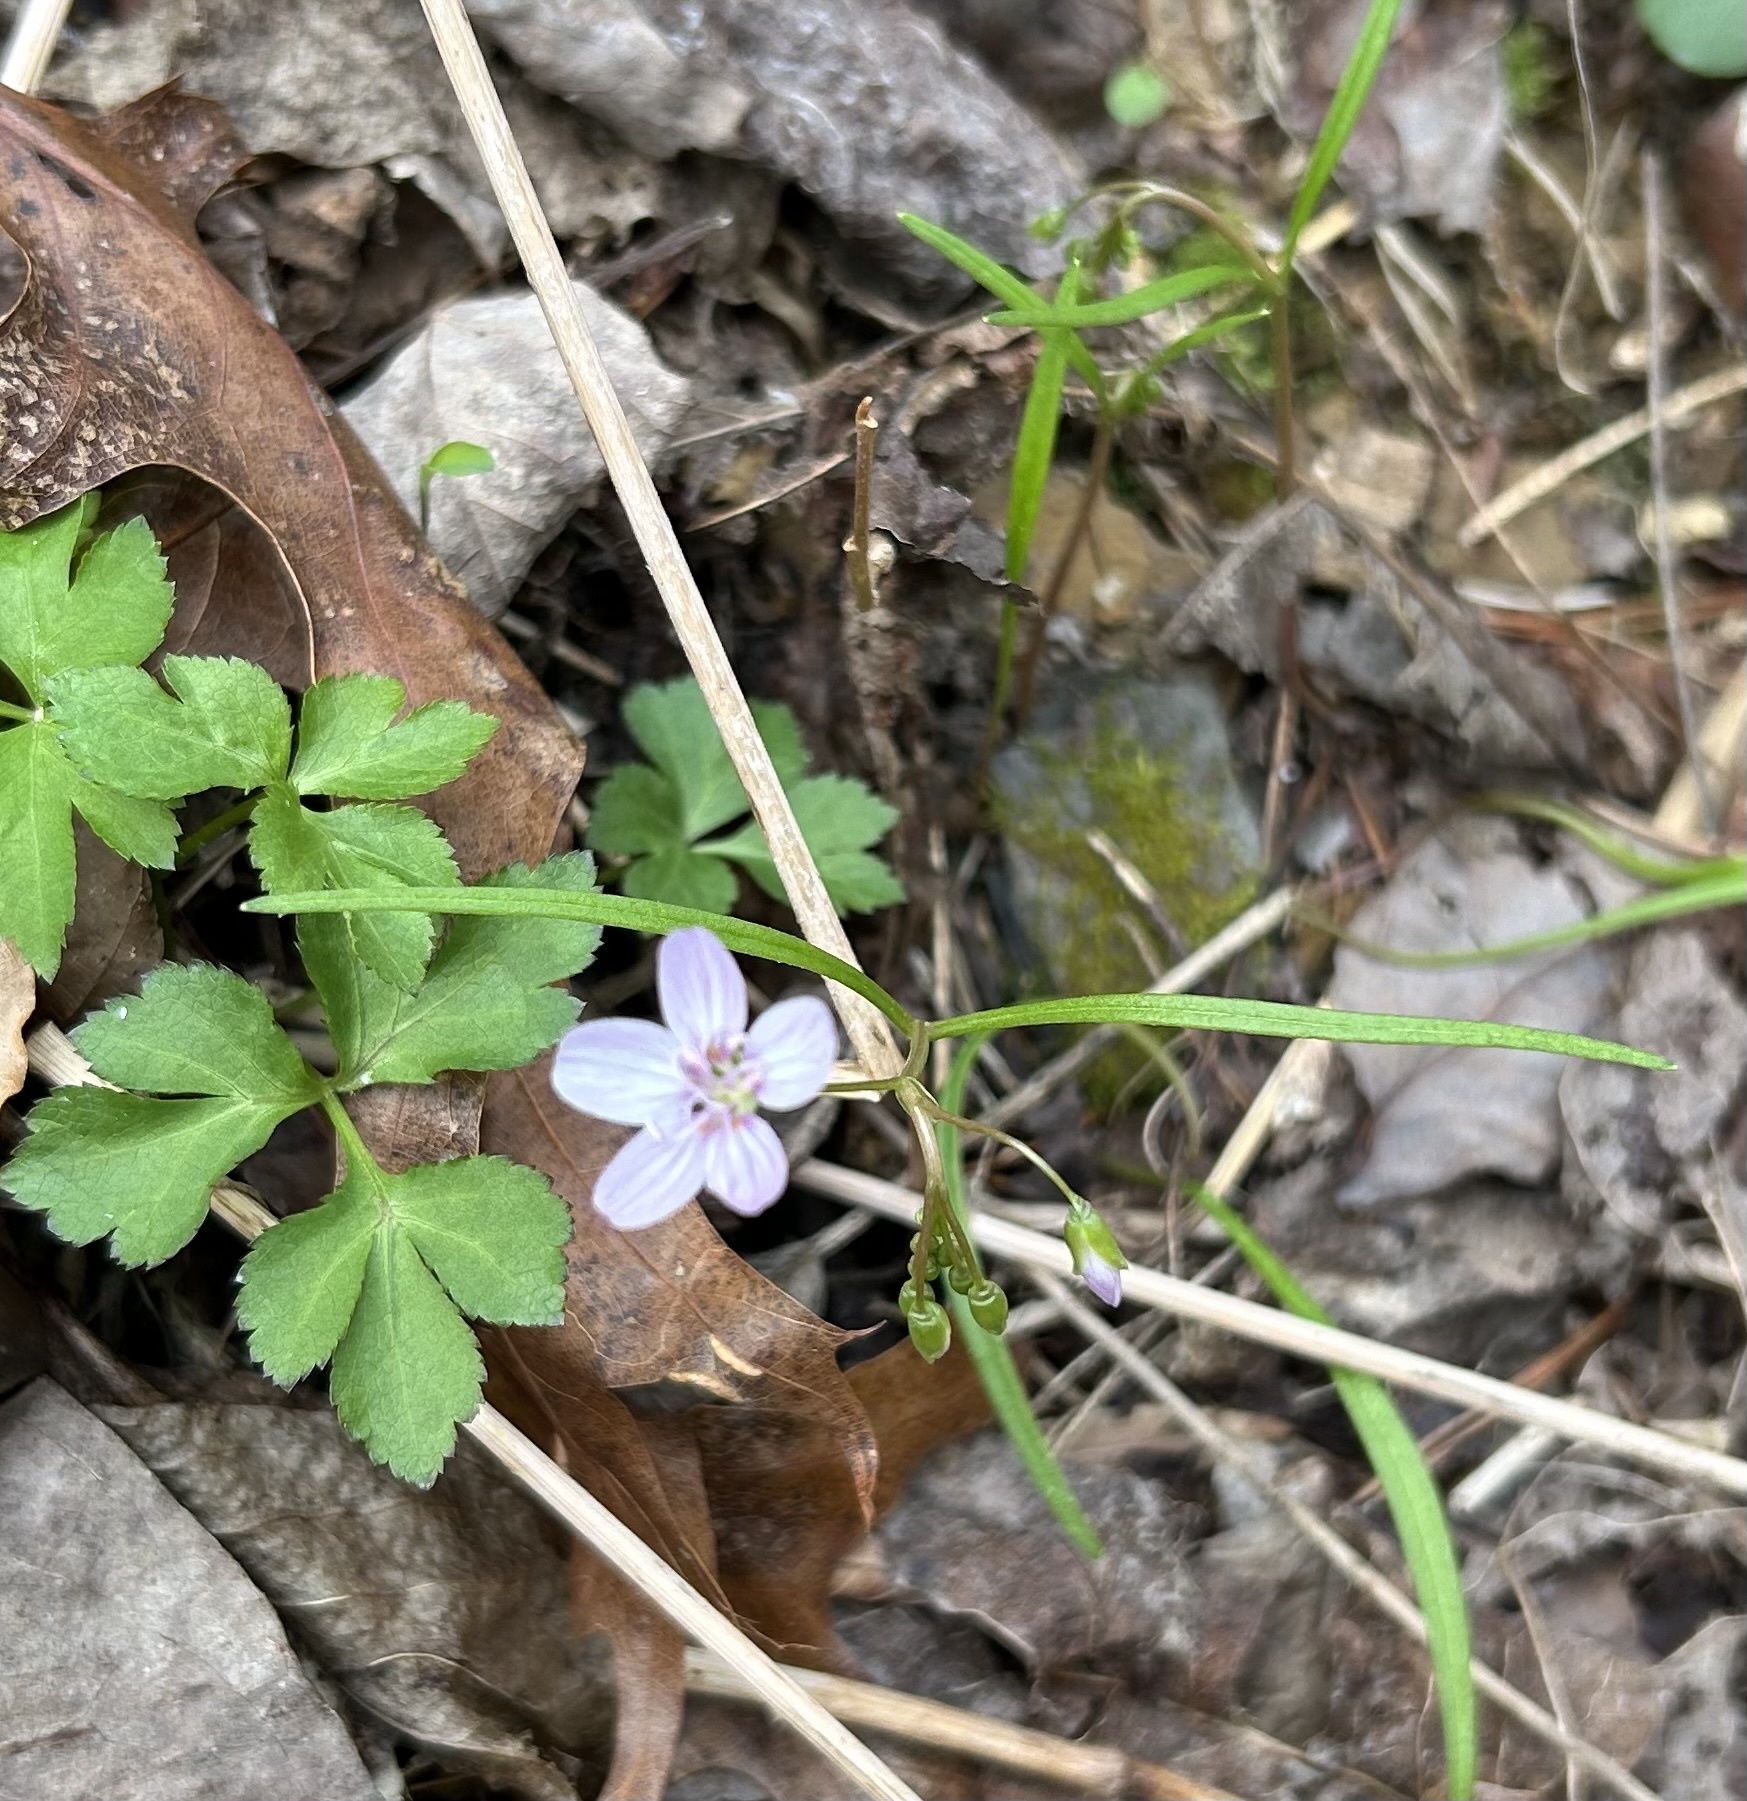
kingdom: Plantae
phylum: Tracheophyta
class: Magnoliopsida
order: Caryophyllales
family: Montiaceae
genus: Claytonia
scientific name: Claytonia virginica
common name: Virginia springbeauty
